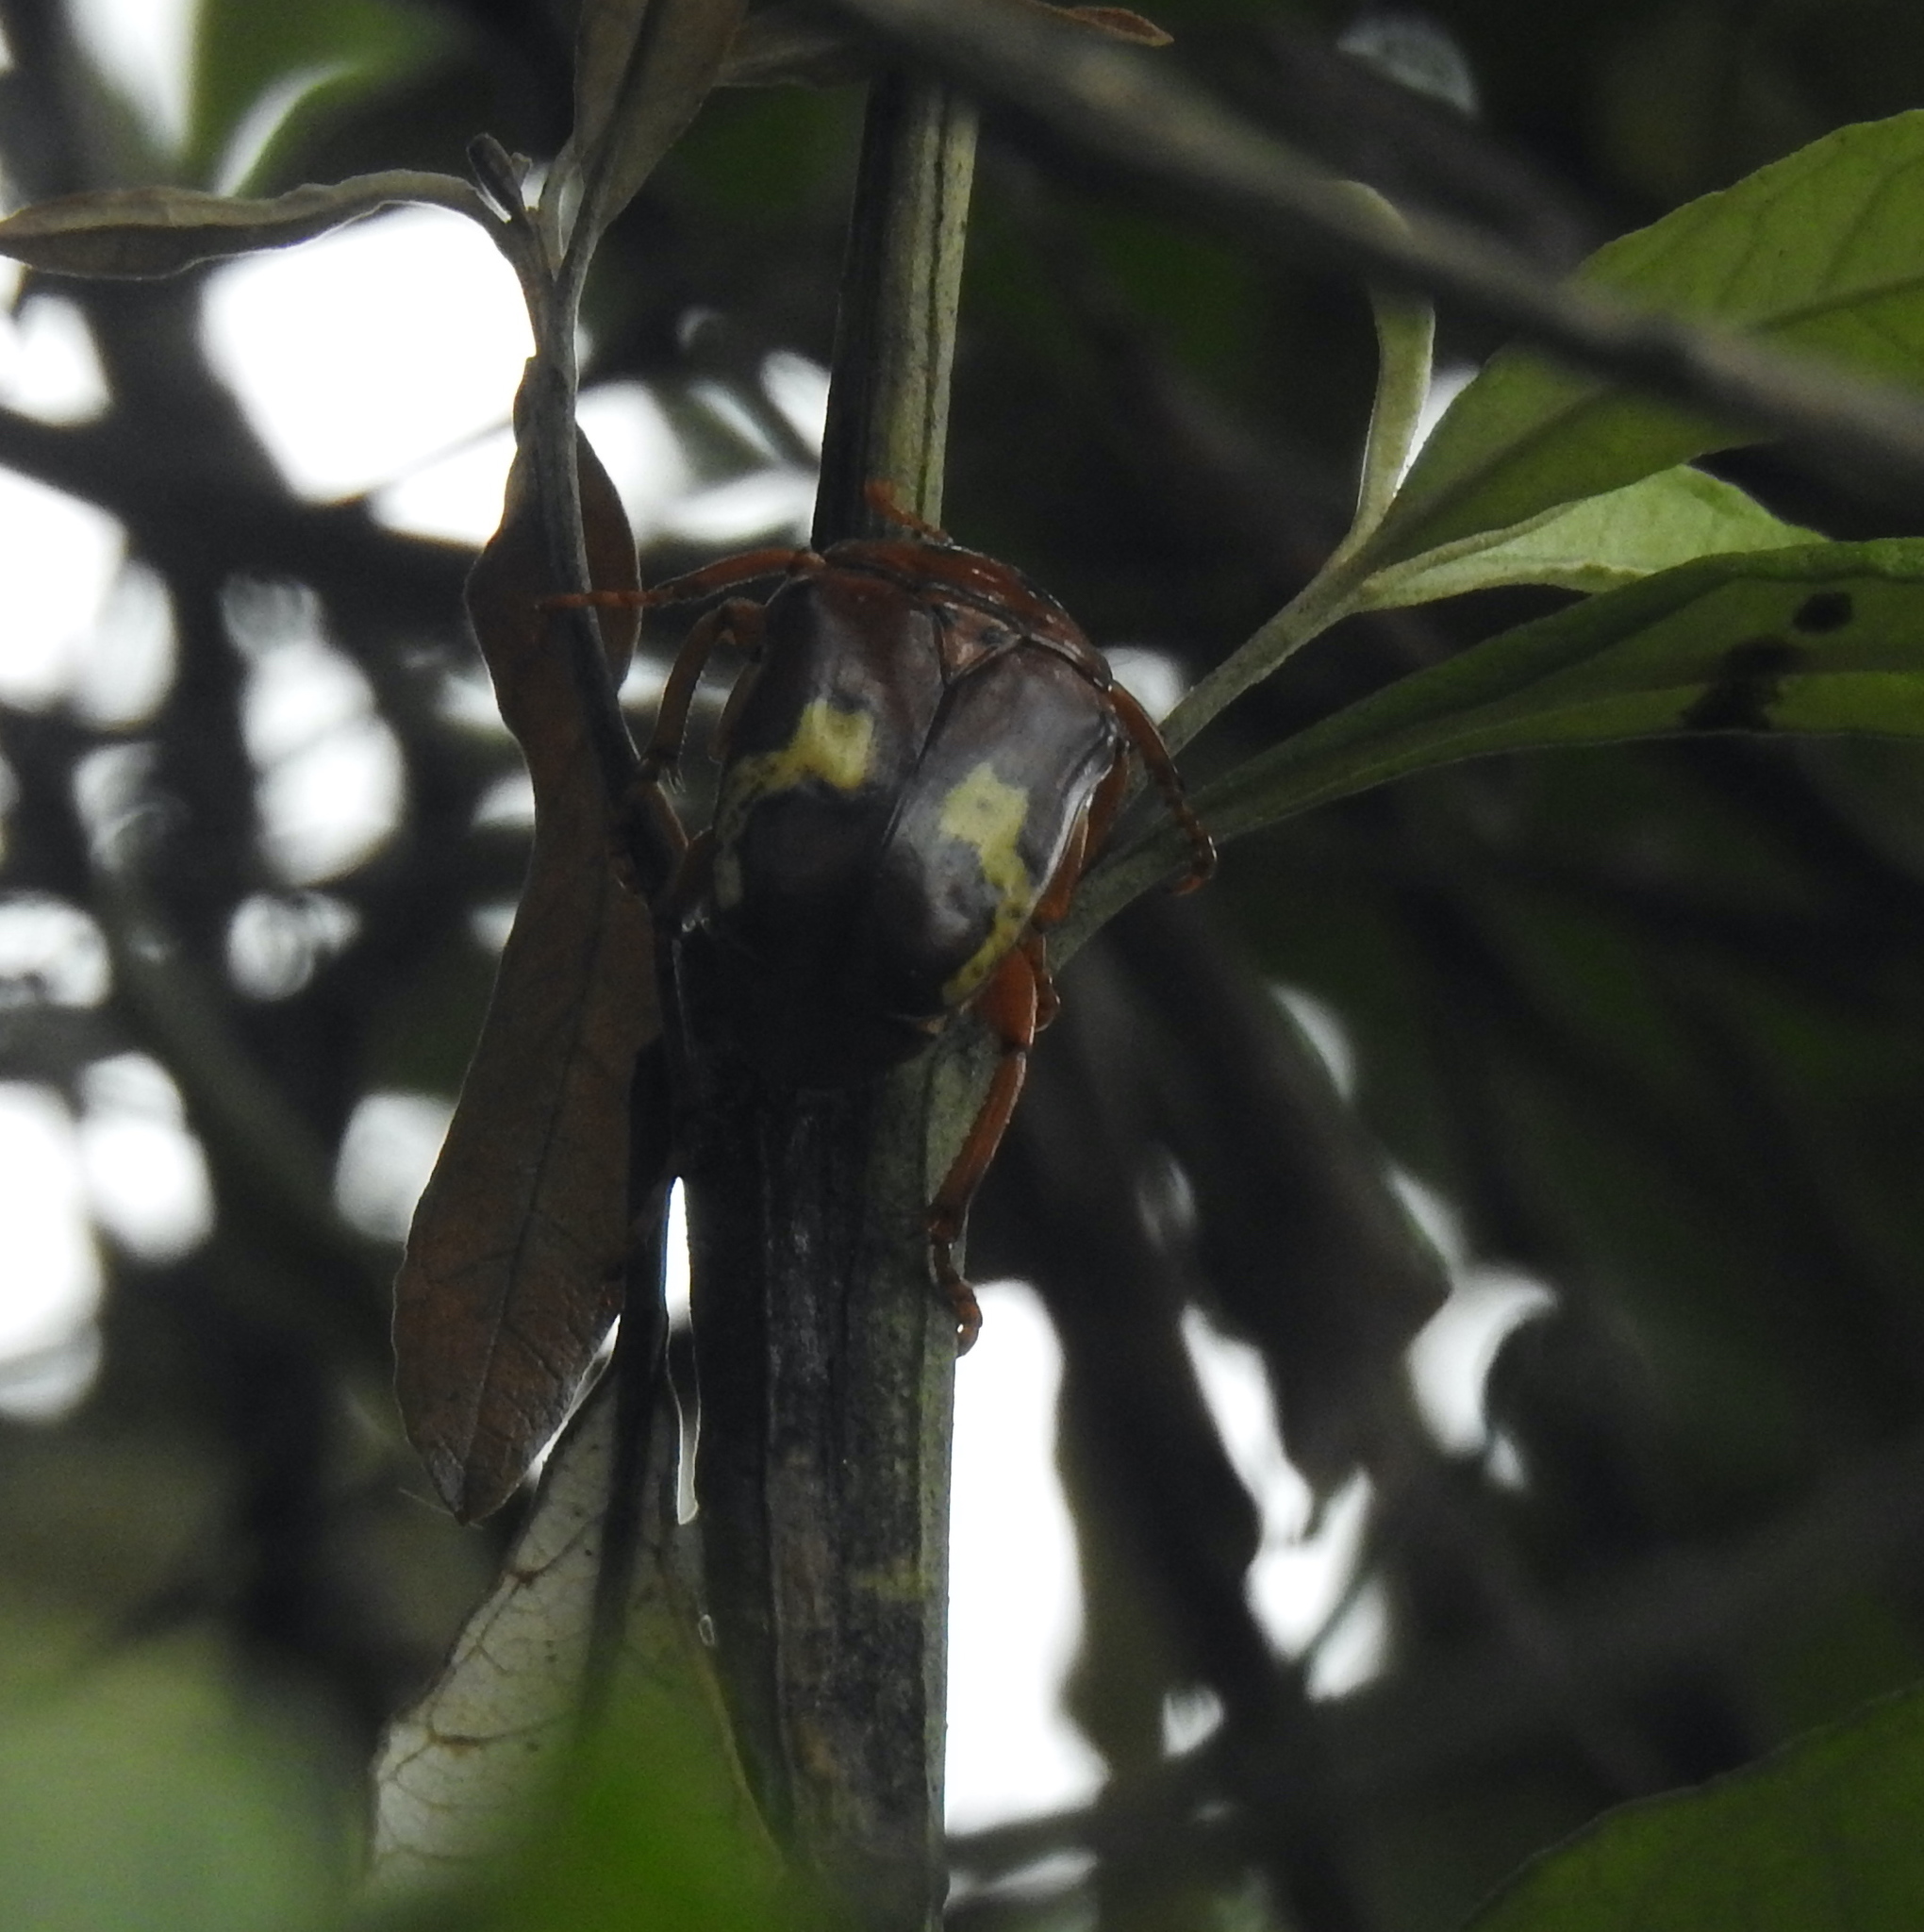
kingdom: Animalia
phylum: Arthropoda
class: Insecta
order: Coleoptera
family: Scarabaeidae
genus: Anisorrhina
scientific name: Anisorrhina flavomaculata
